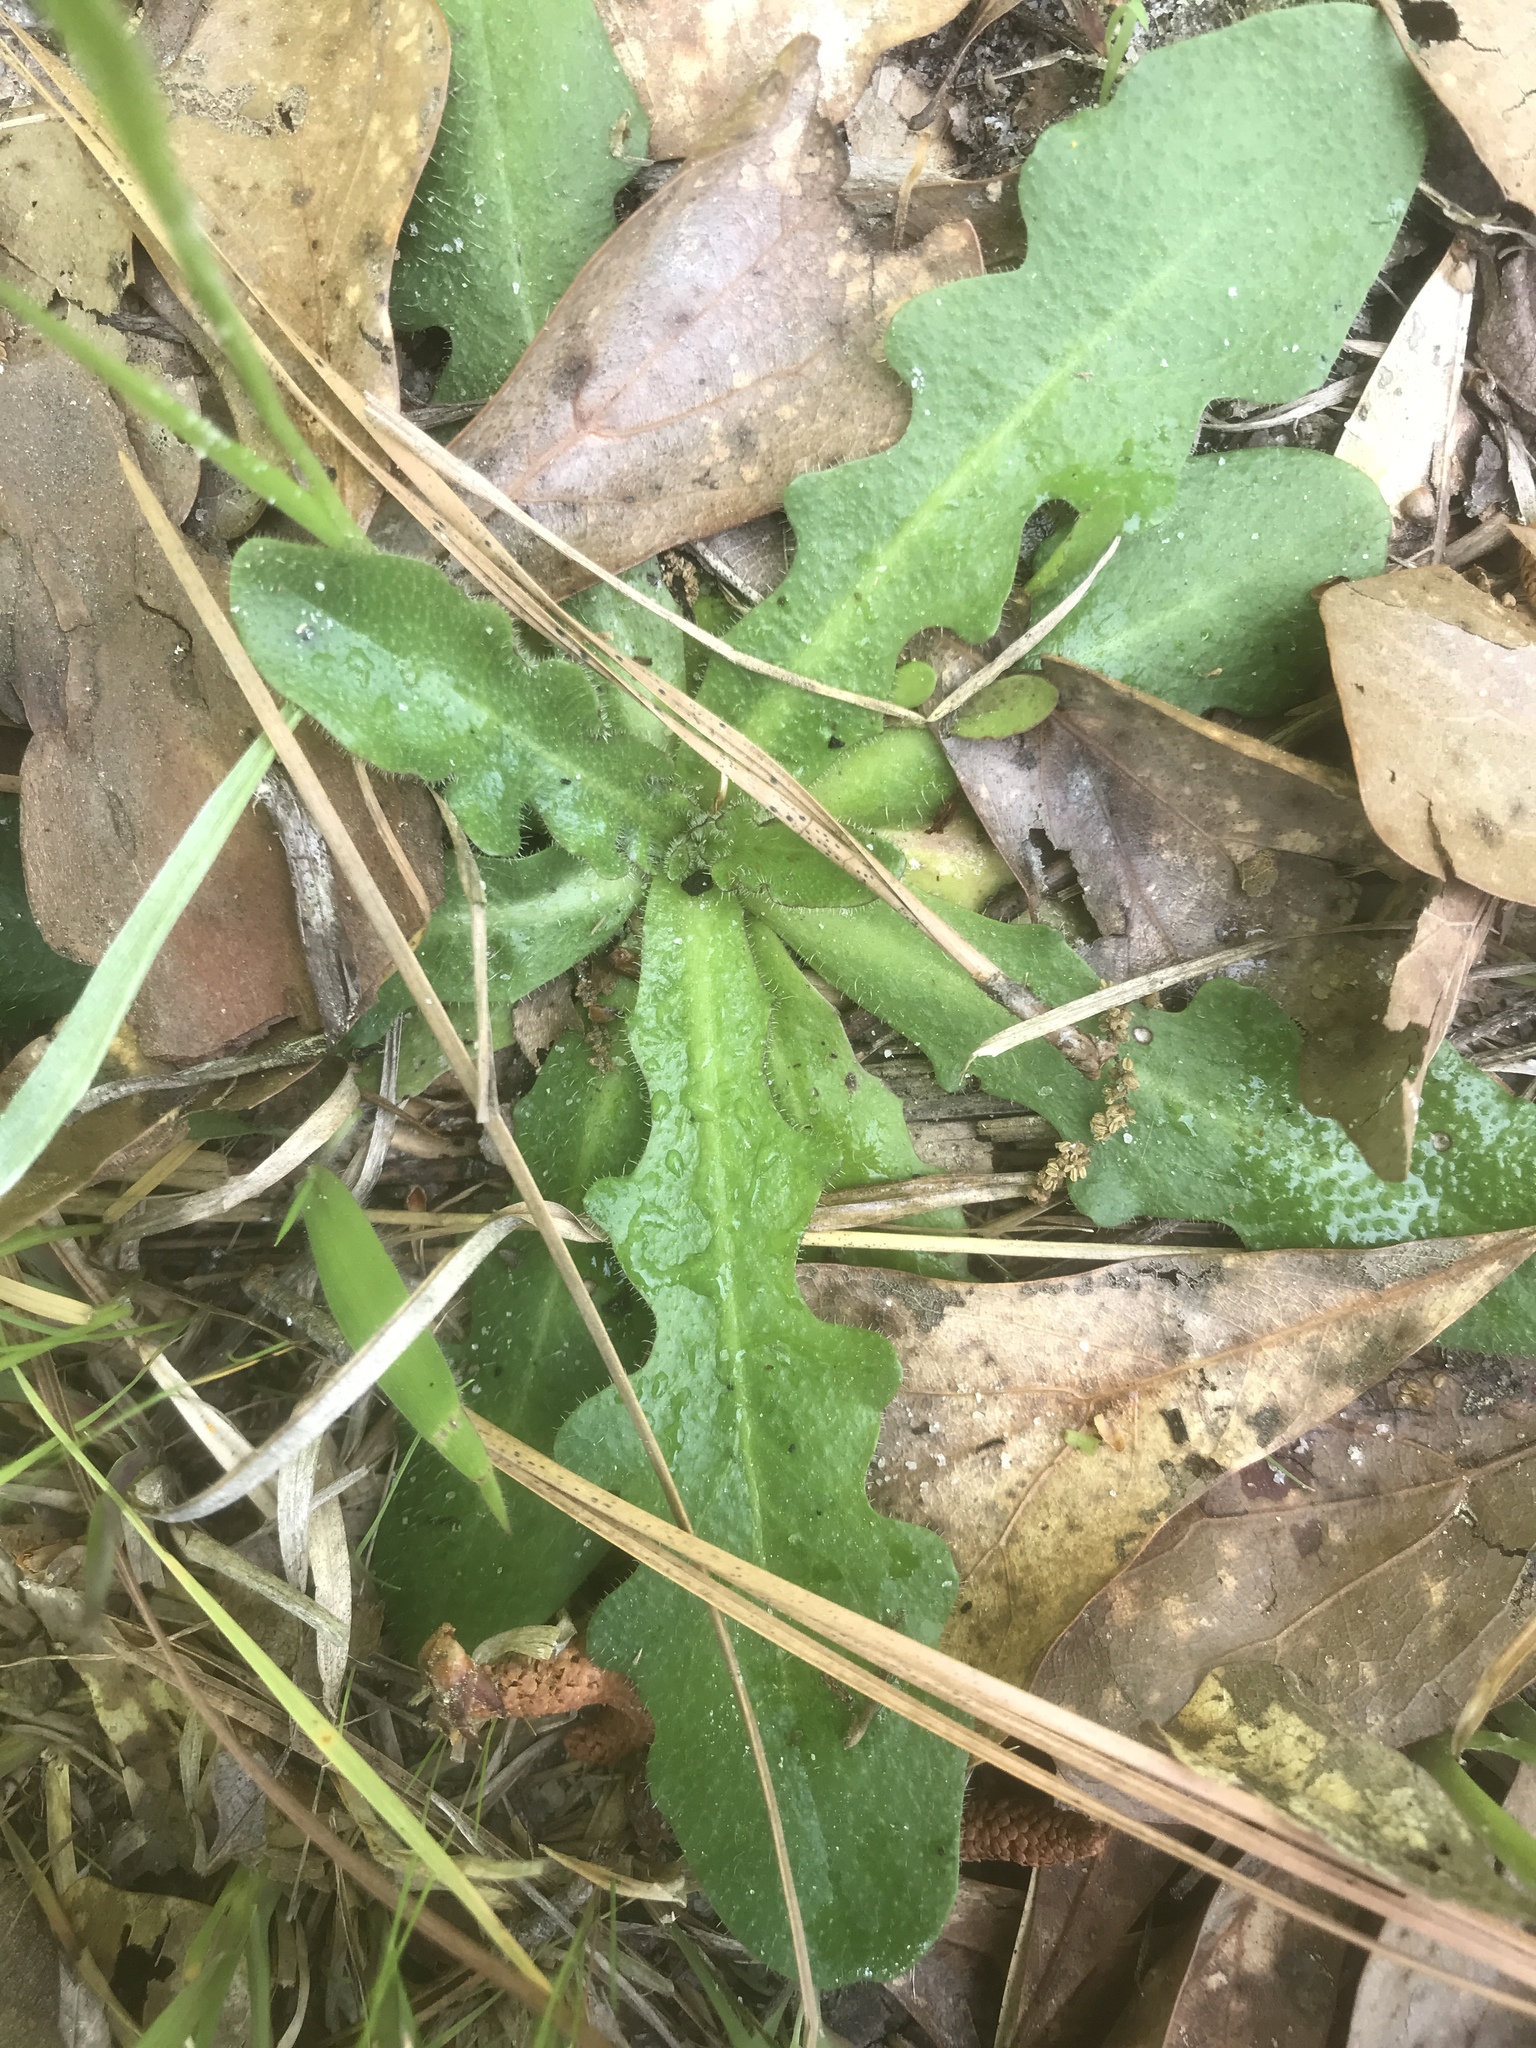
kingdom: Plantae
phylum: Tracheophyta
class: Magnoliopsida
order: Asterales
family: Asteraceae
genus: Hypochaeris
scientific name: Hypochaeris radicata
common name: Flatweed
